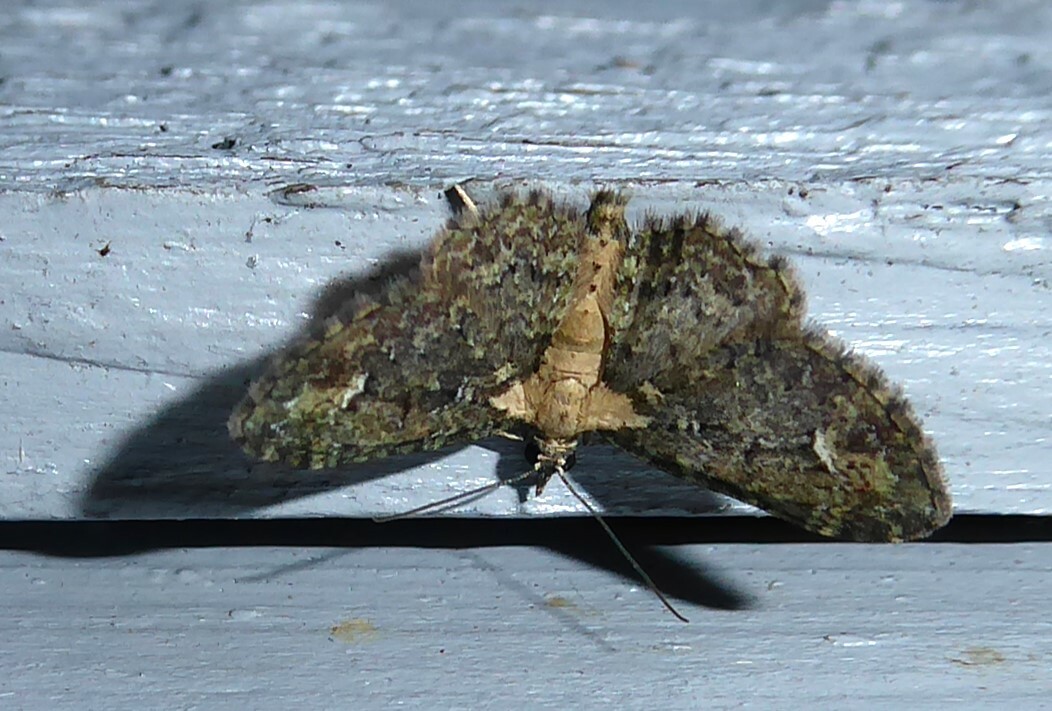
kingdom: Animalia
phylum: Arthropoda
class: Insecta
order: Lepidoptera
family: Geometridae
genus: Pasiphilodes
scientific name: Pasiphilodes testulata
